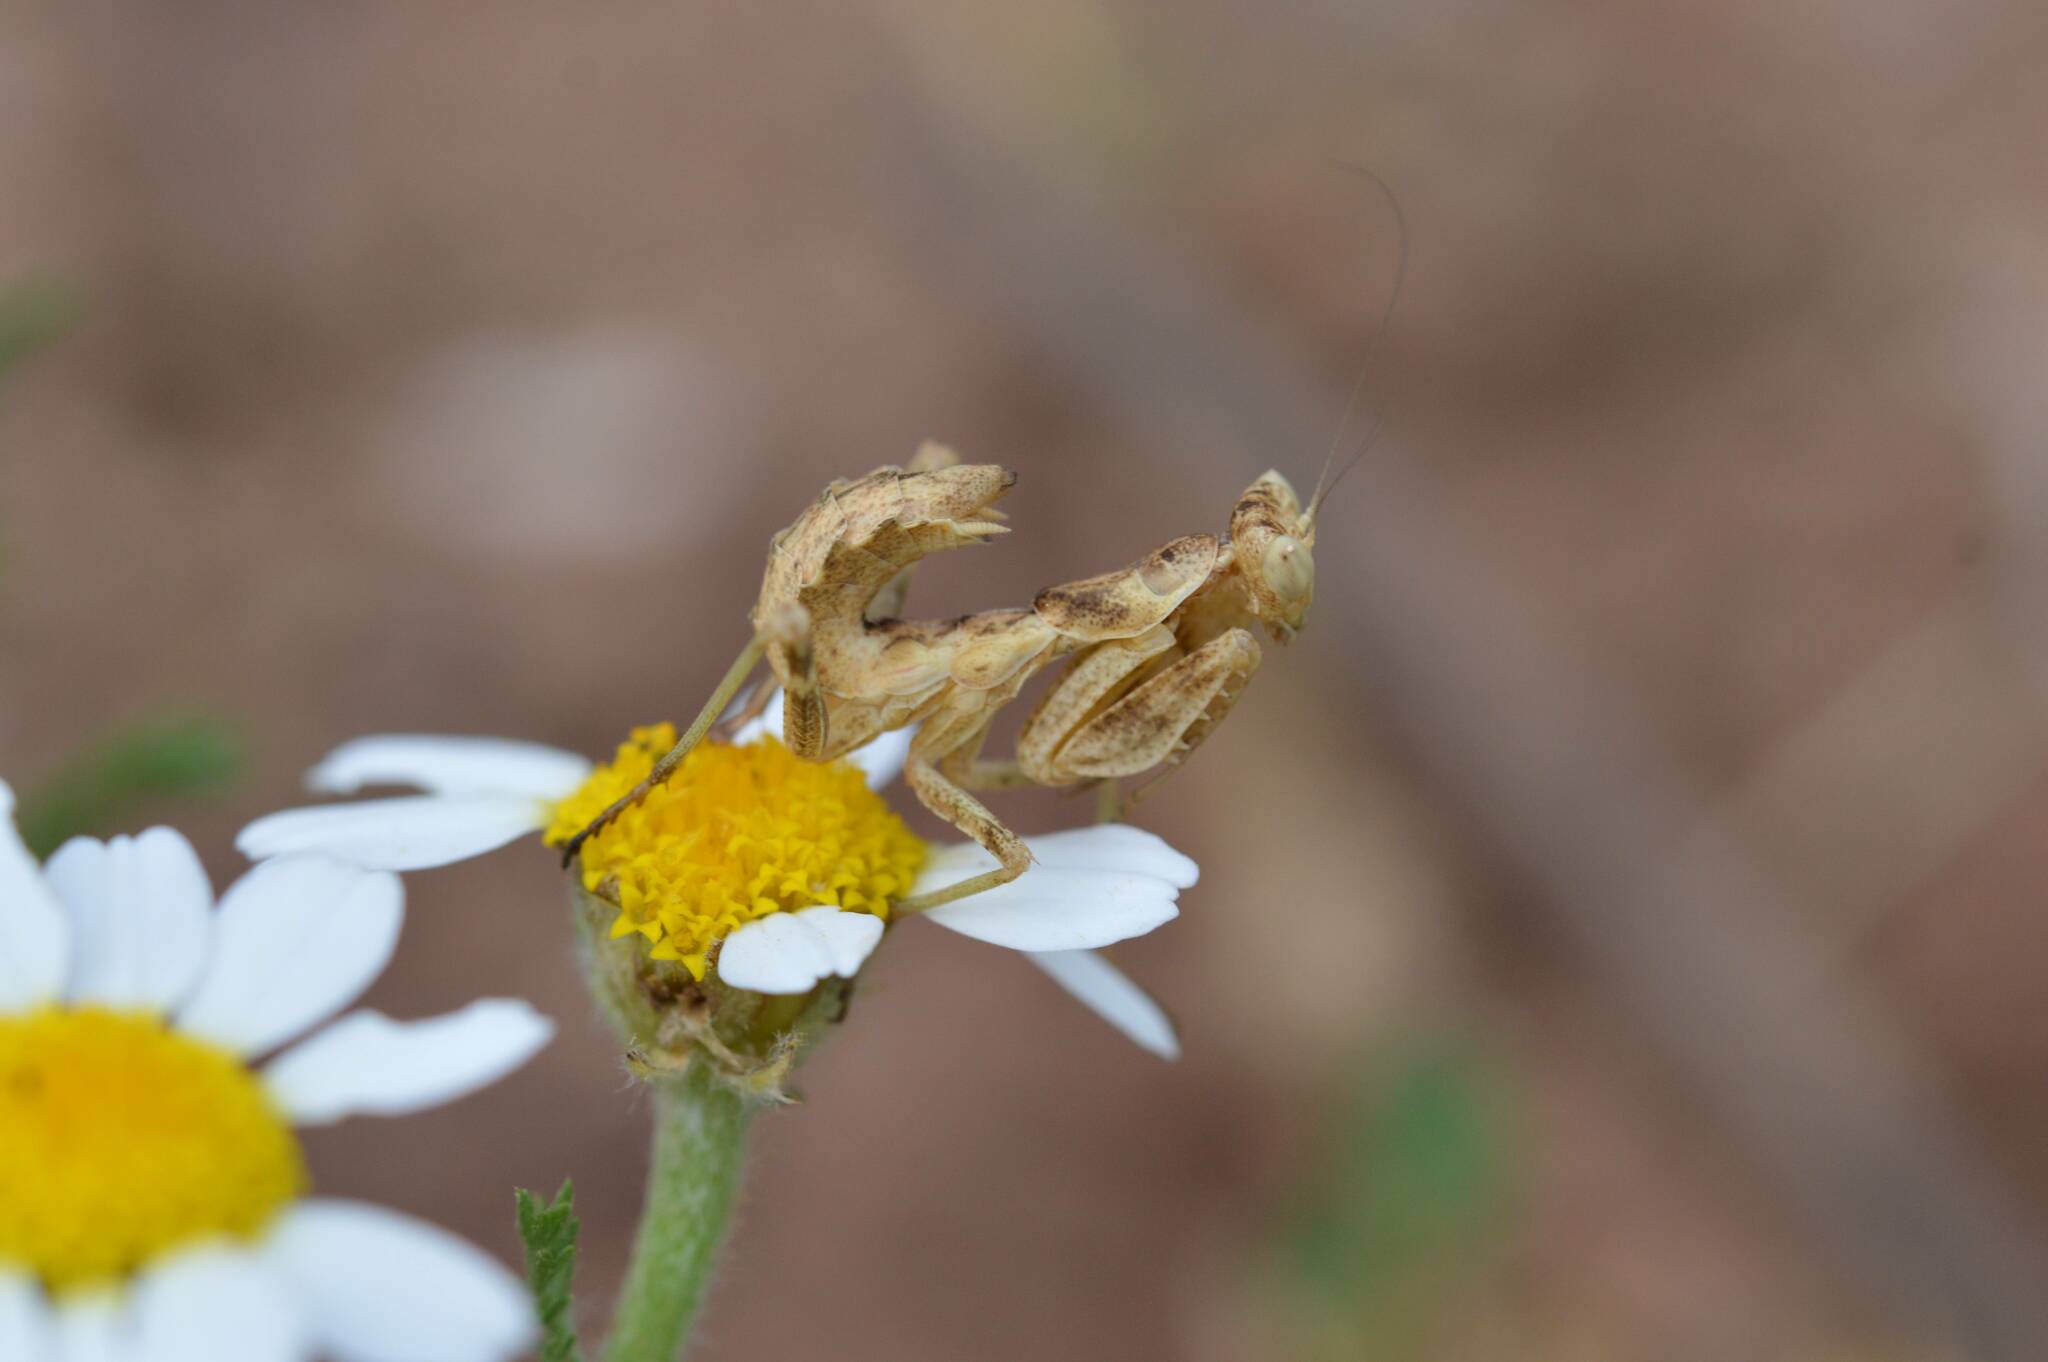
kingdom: Animalia
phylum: Arthropoda
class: Insecta
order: Mantodea
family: Amelidae
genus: Ameles
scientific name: Ameles spallanzania
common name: European dwarf mantis
